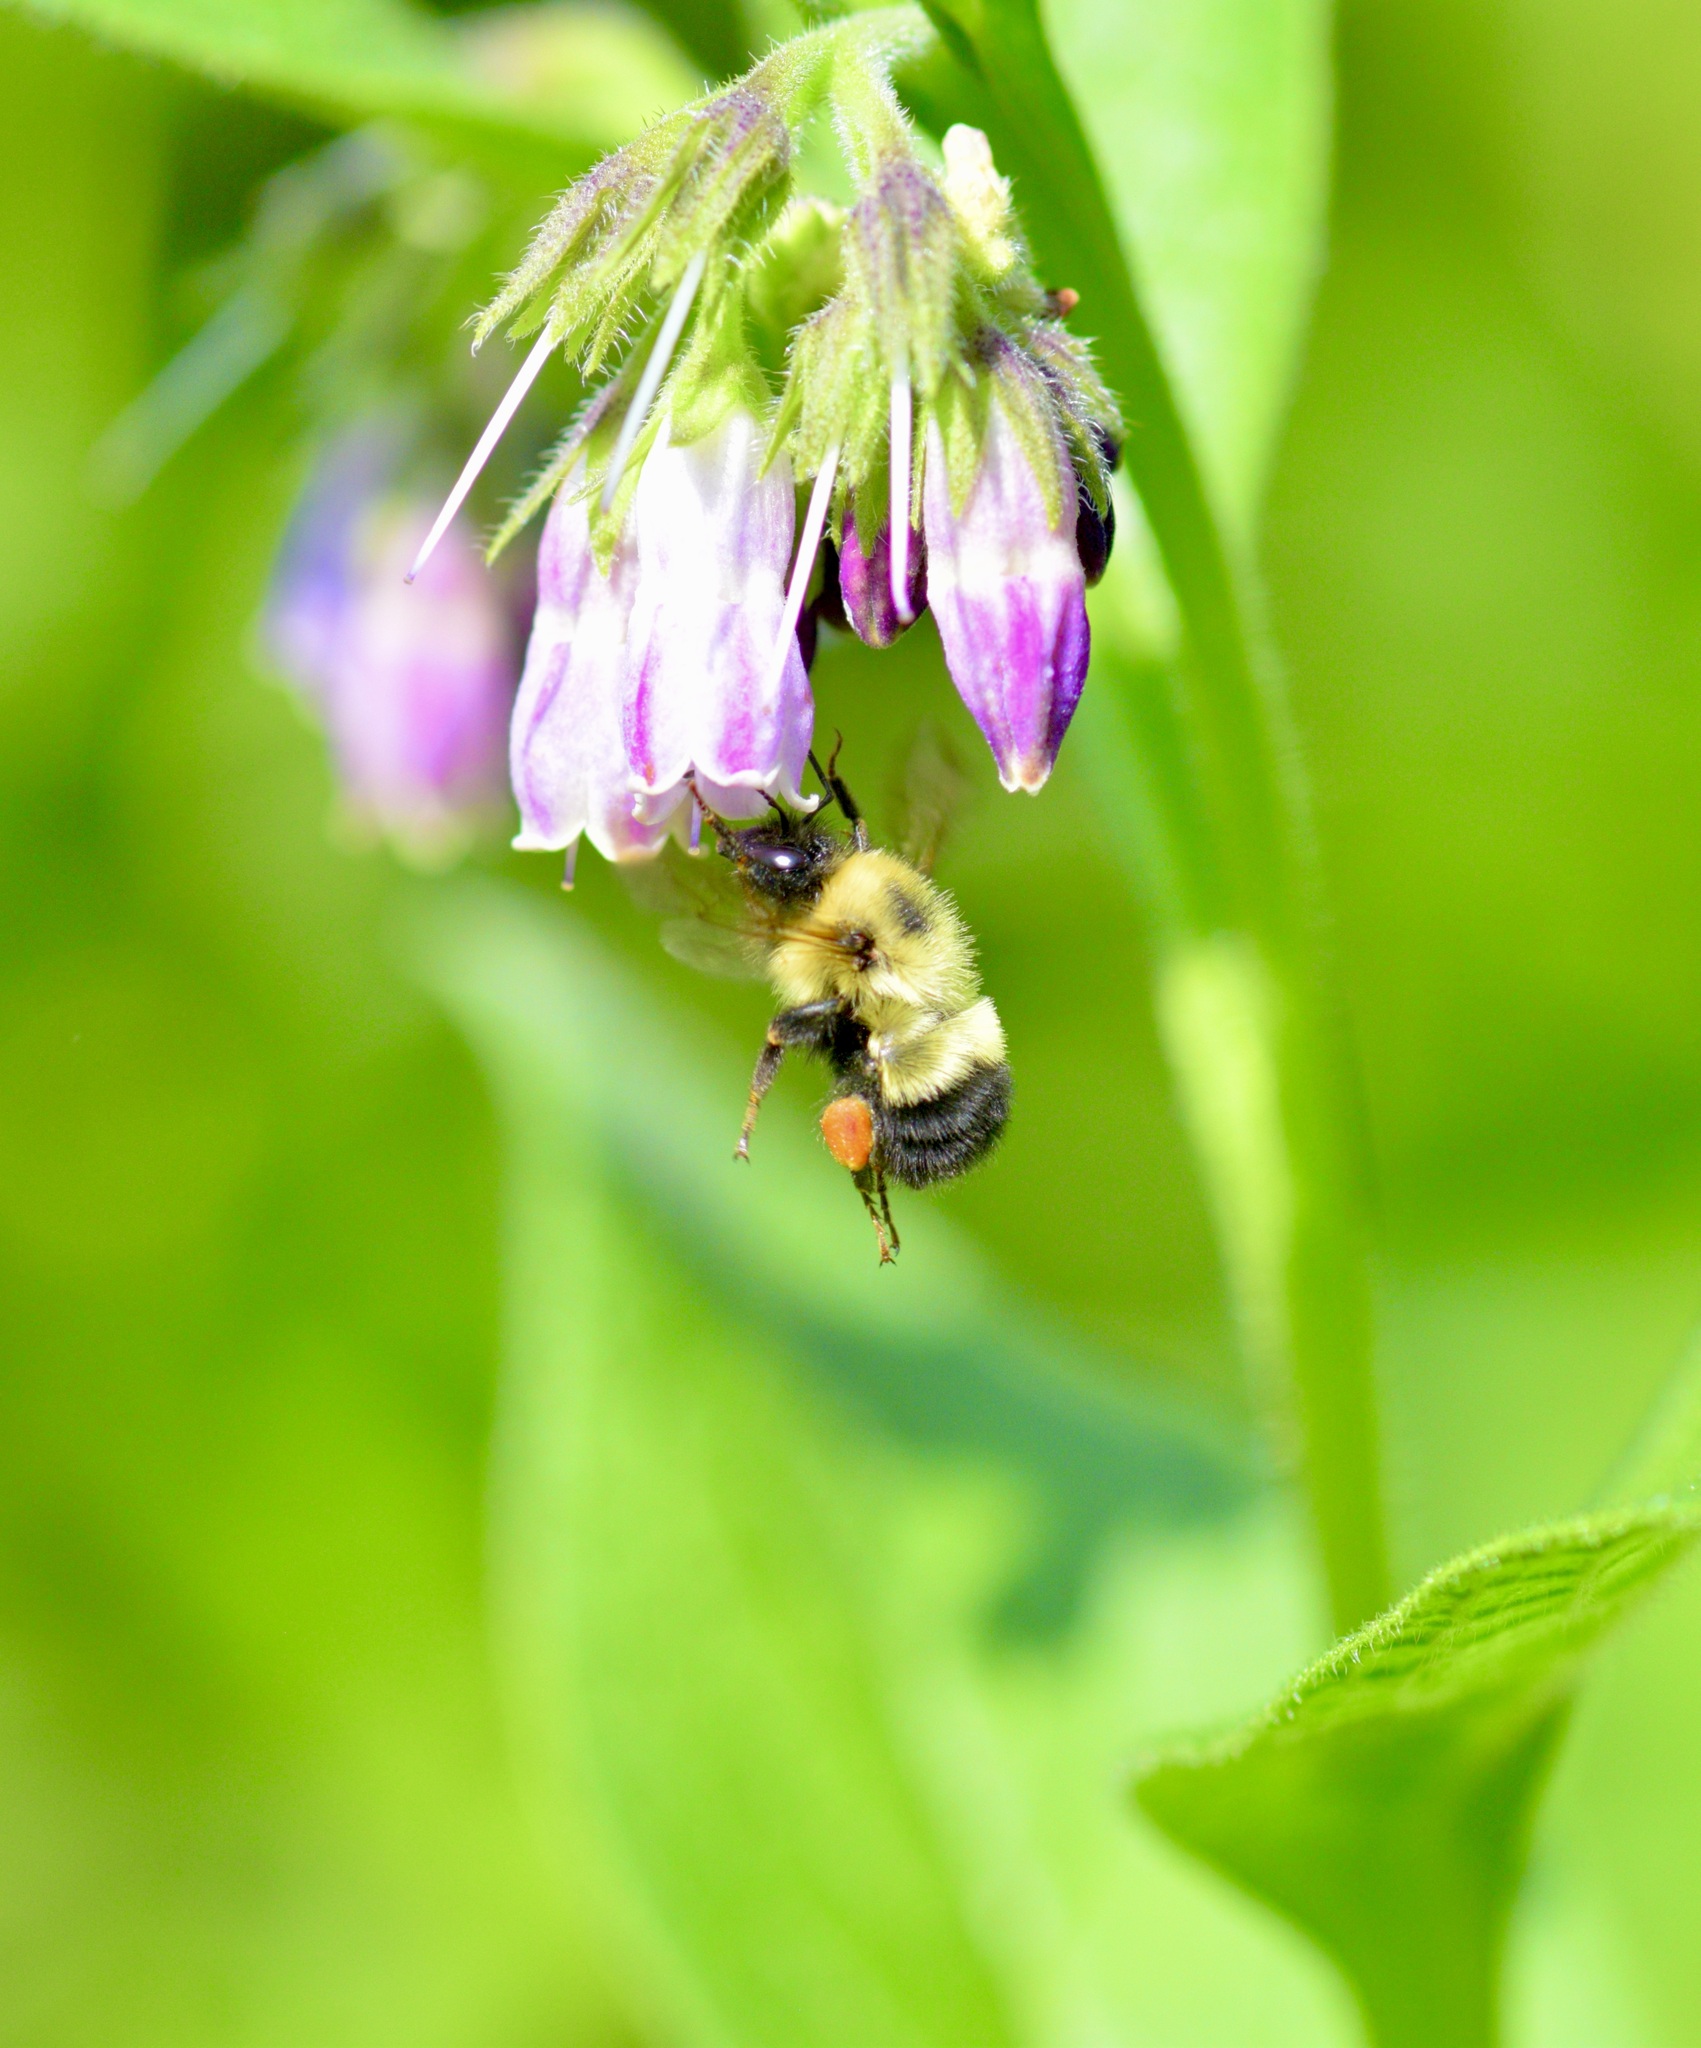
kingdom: Animalia
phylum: Arthropoda
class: Insecta
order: Hymenoptera
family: Apidae
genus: Pyrobombus
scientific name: Pyrobombus
